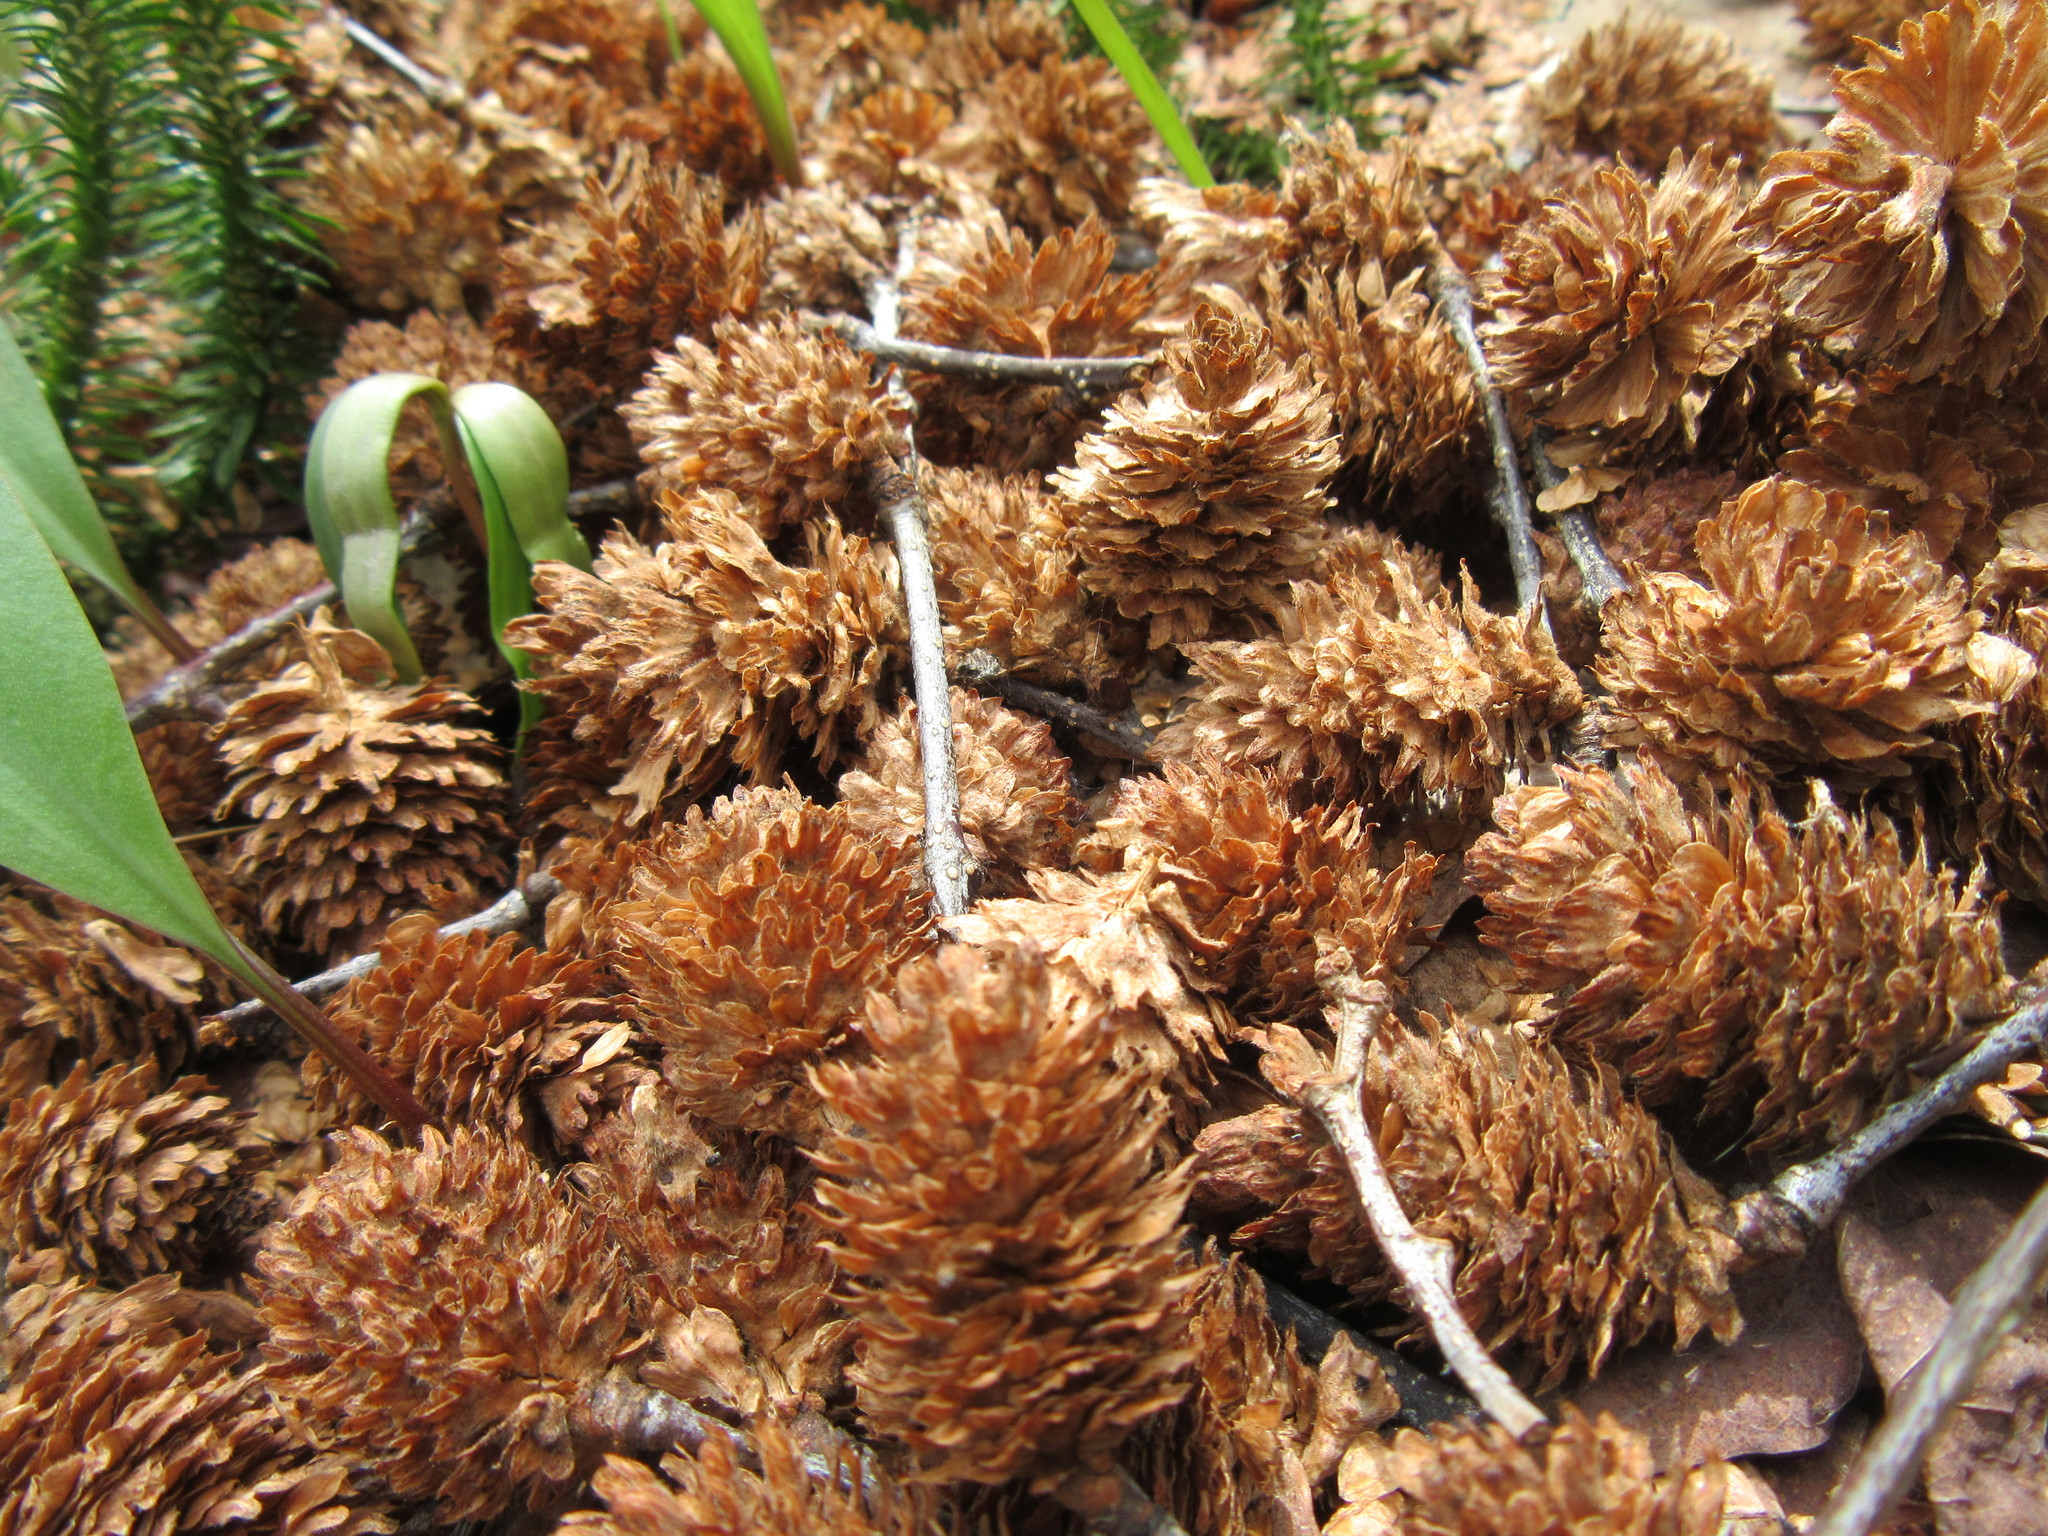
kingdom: Plantae
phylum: Tracheophyta
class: Magnoliopsida
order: Fagales
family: Betulaceae
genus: Betula
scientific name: Betula alleghaniensis
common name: Yellow birch
